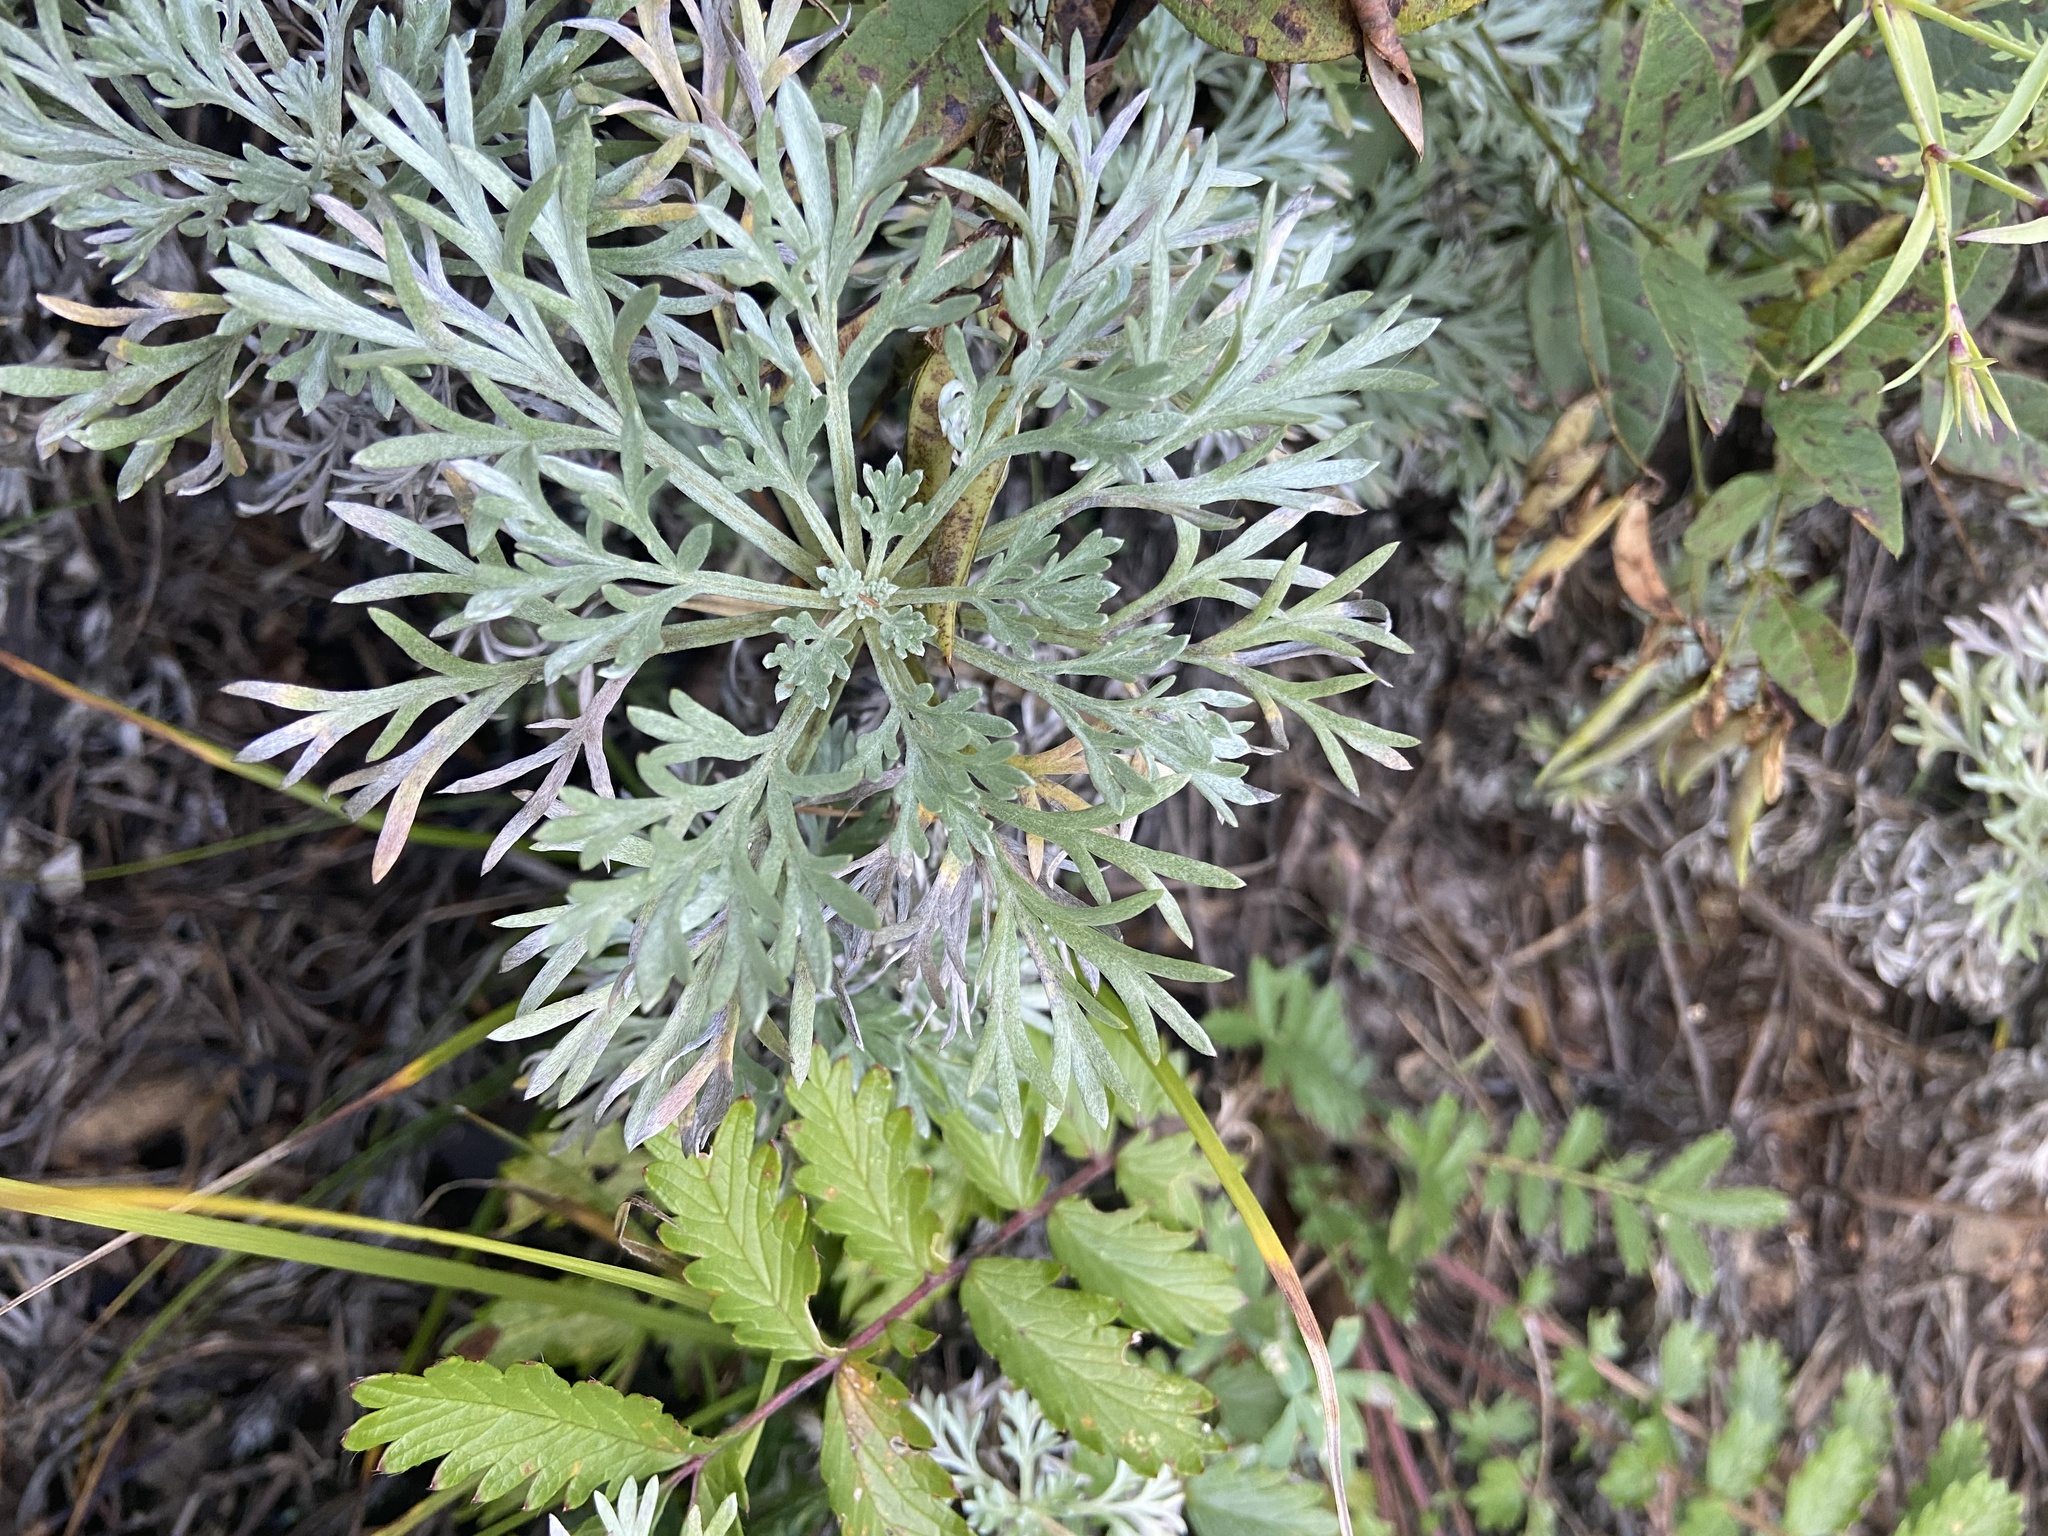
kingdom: Plantae
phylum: Tracheophyta
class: Magnoliopsida
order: Asterales
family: Asteraceae
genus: Artemisia
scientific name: Artemisia sericea
